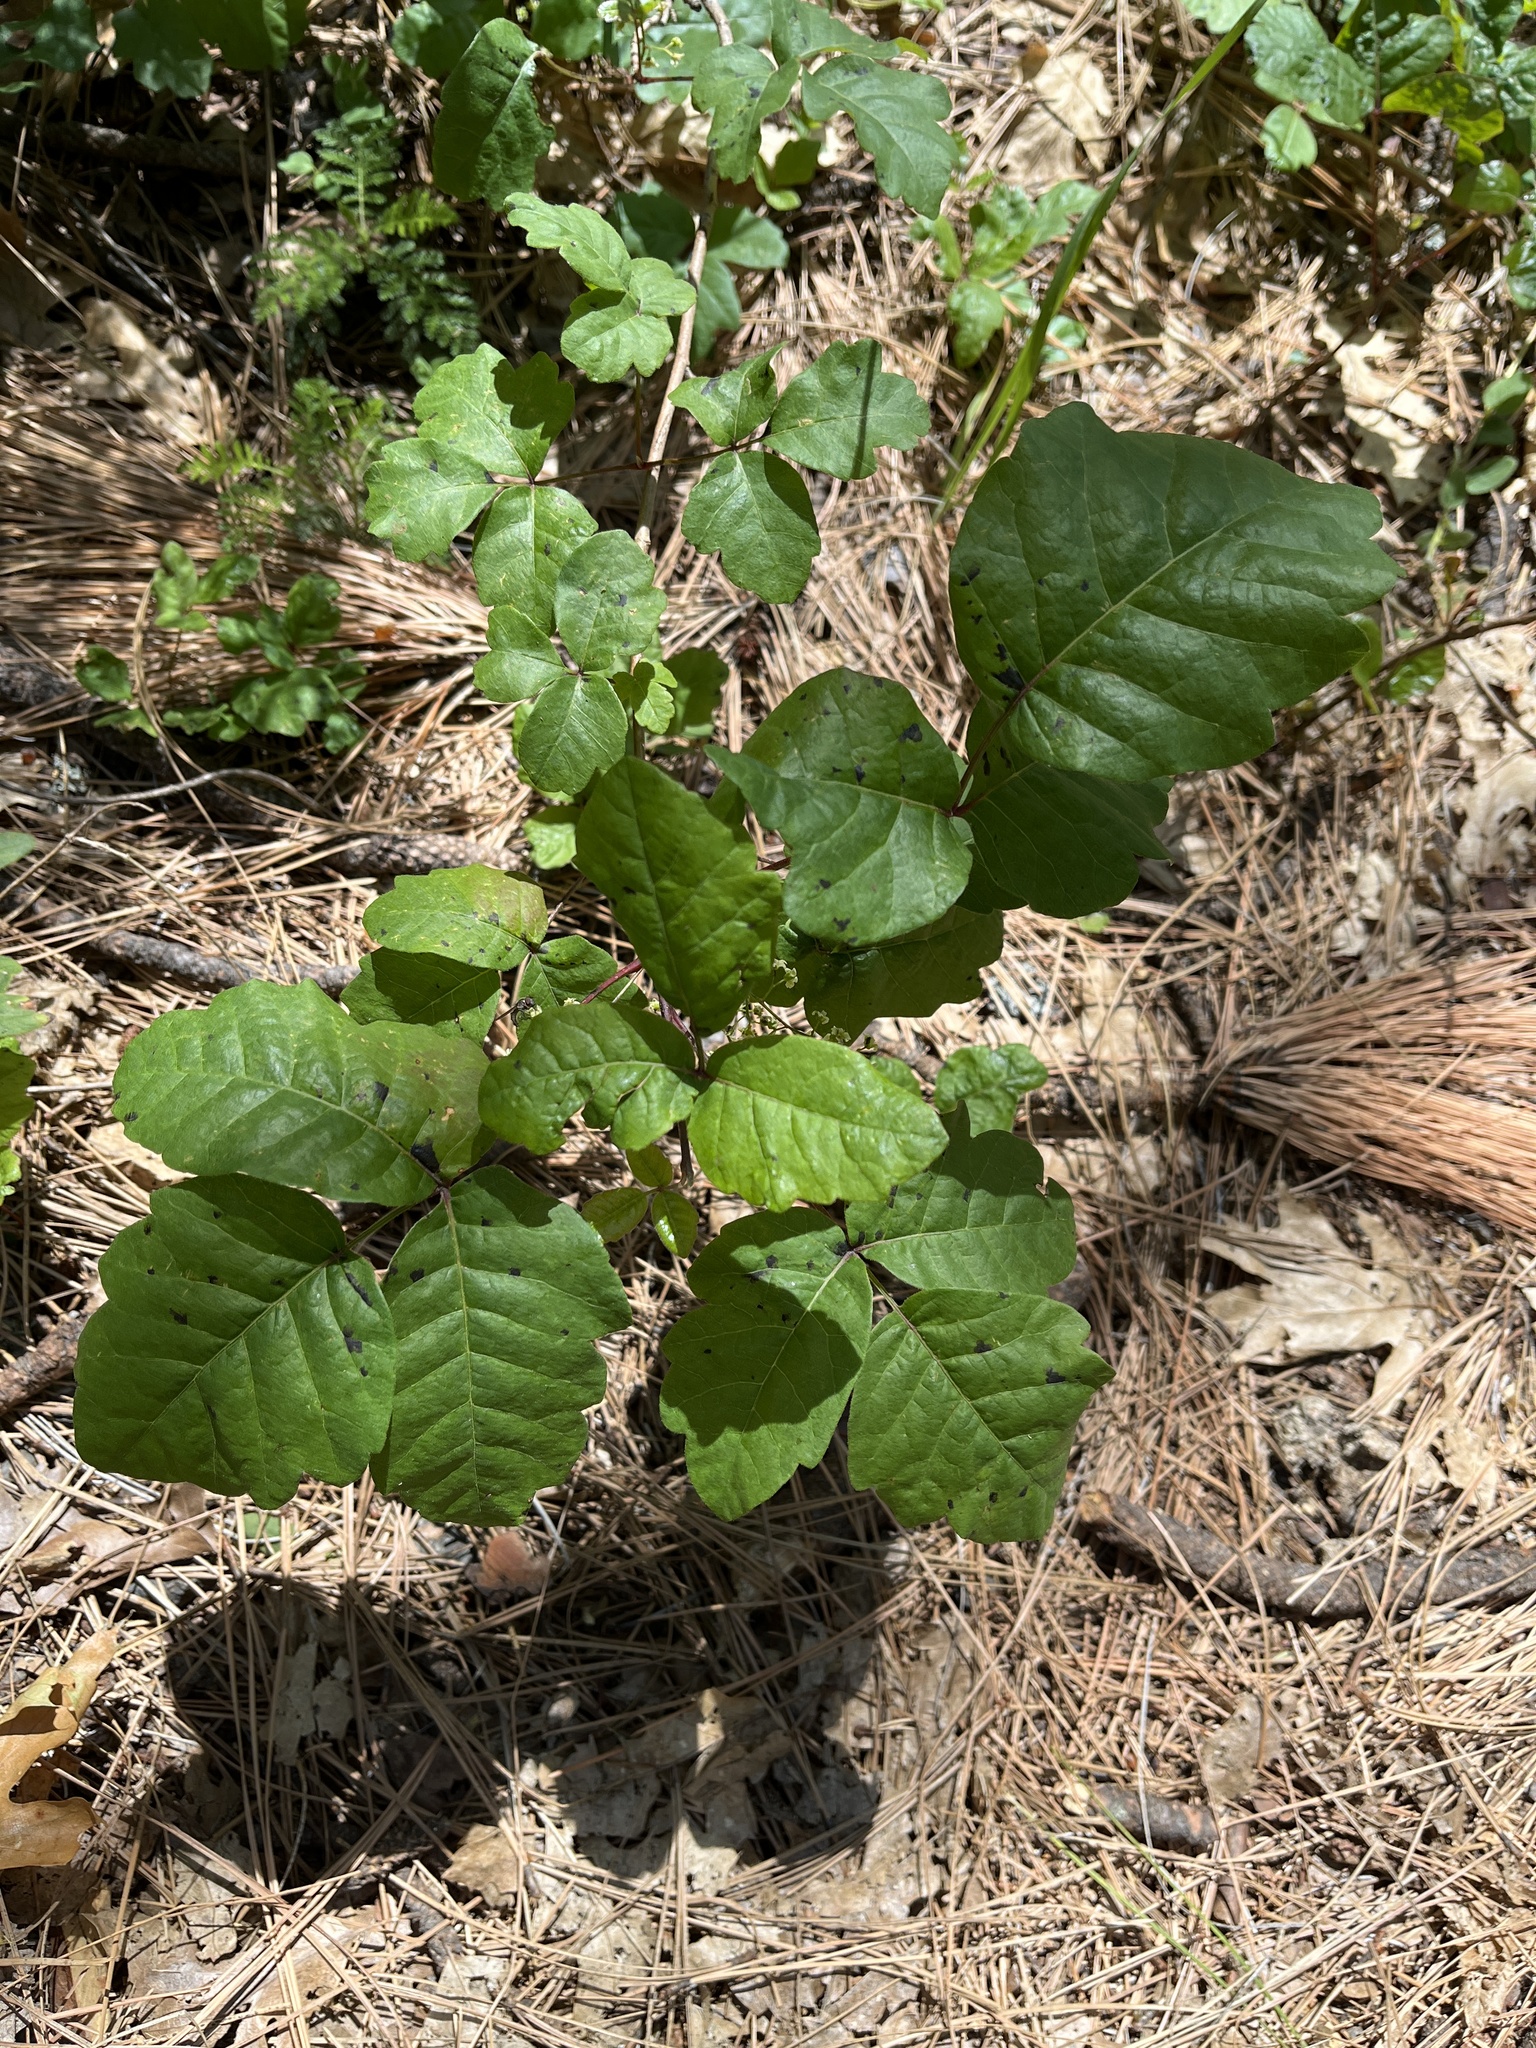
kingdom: Plantae
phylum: Tracheophyta
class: Magnoliopsida
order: Sapindales
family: Anacardiaceae
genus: Toxicodendron
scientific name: Toxicodendron diversilobum
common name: Pacific poison-oak
